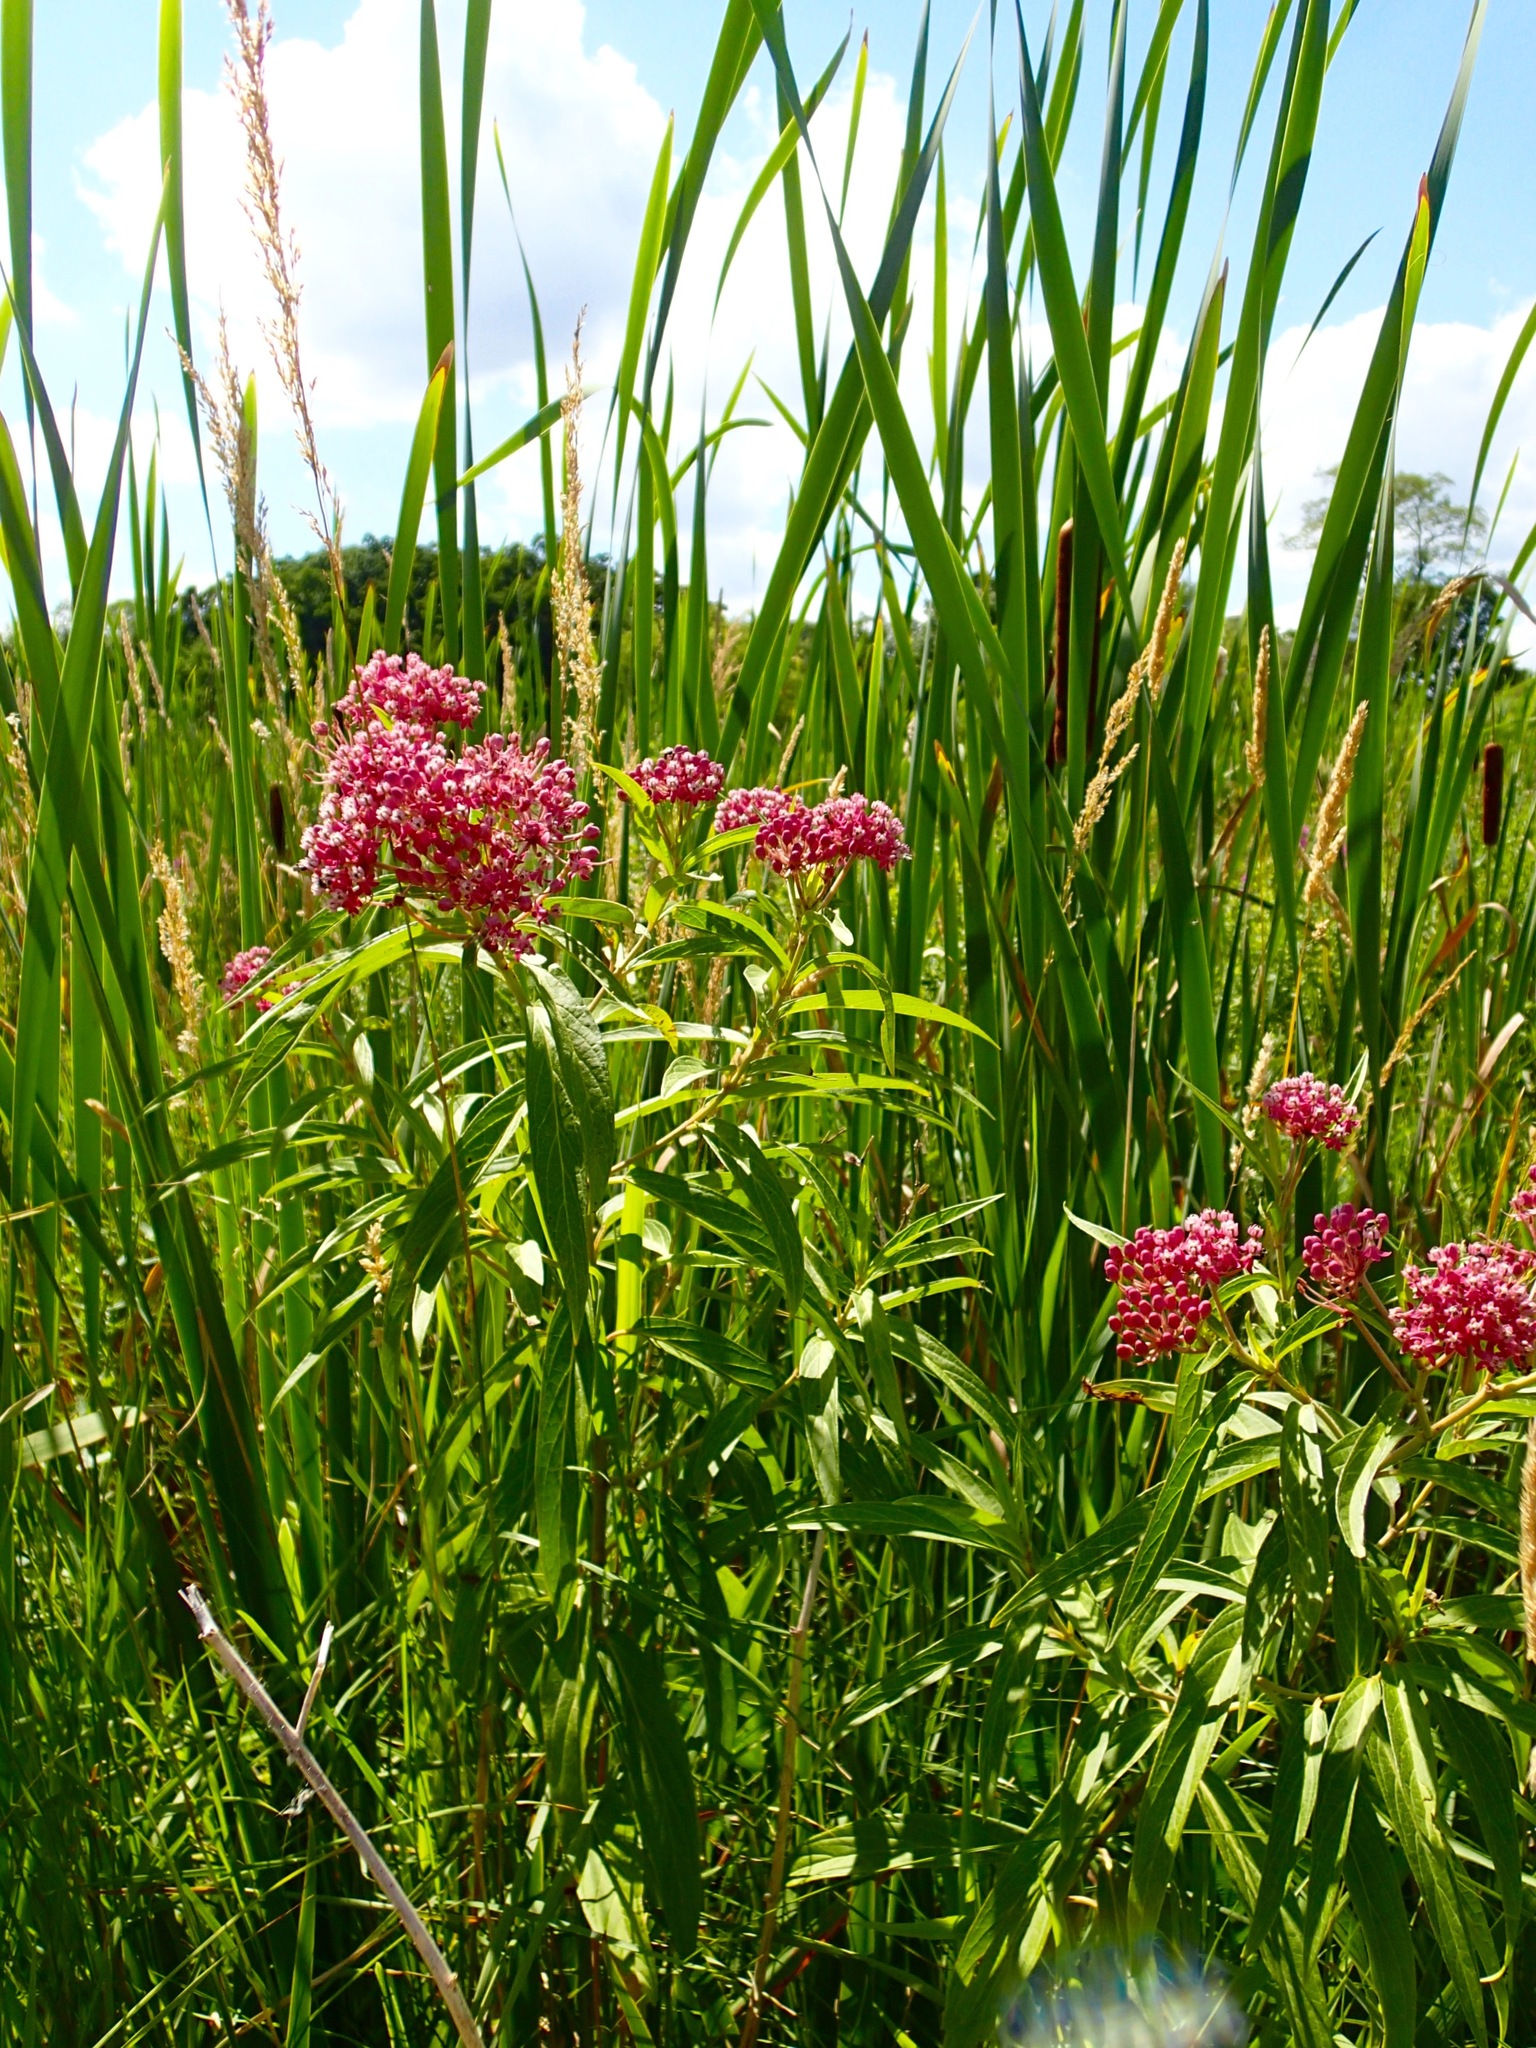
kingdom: Plantae
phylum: Tracheophyta
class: Magnoliopsida
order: Gentianales
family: Apocynaceae
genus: Asclepias
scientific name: Asclepias incarnata
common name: Swamp milkweed
